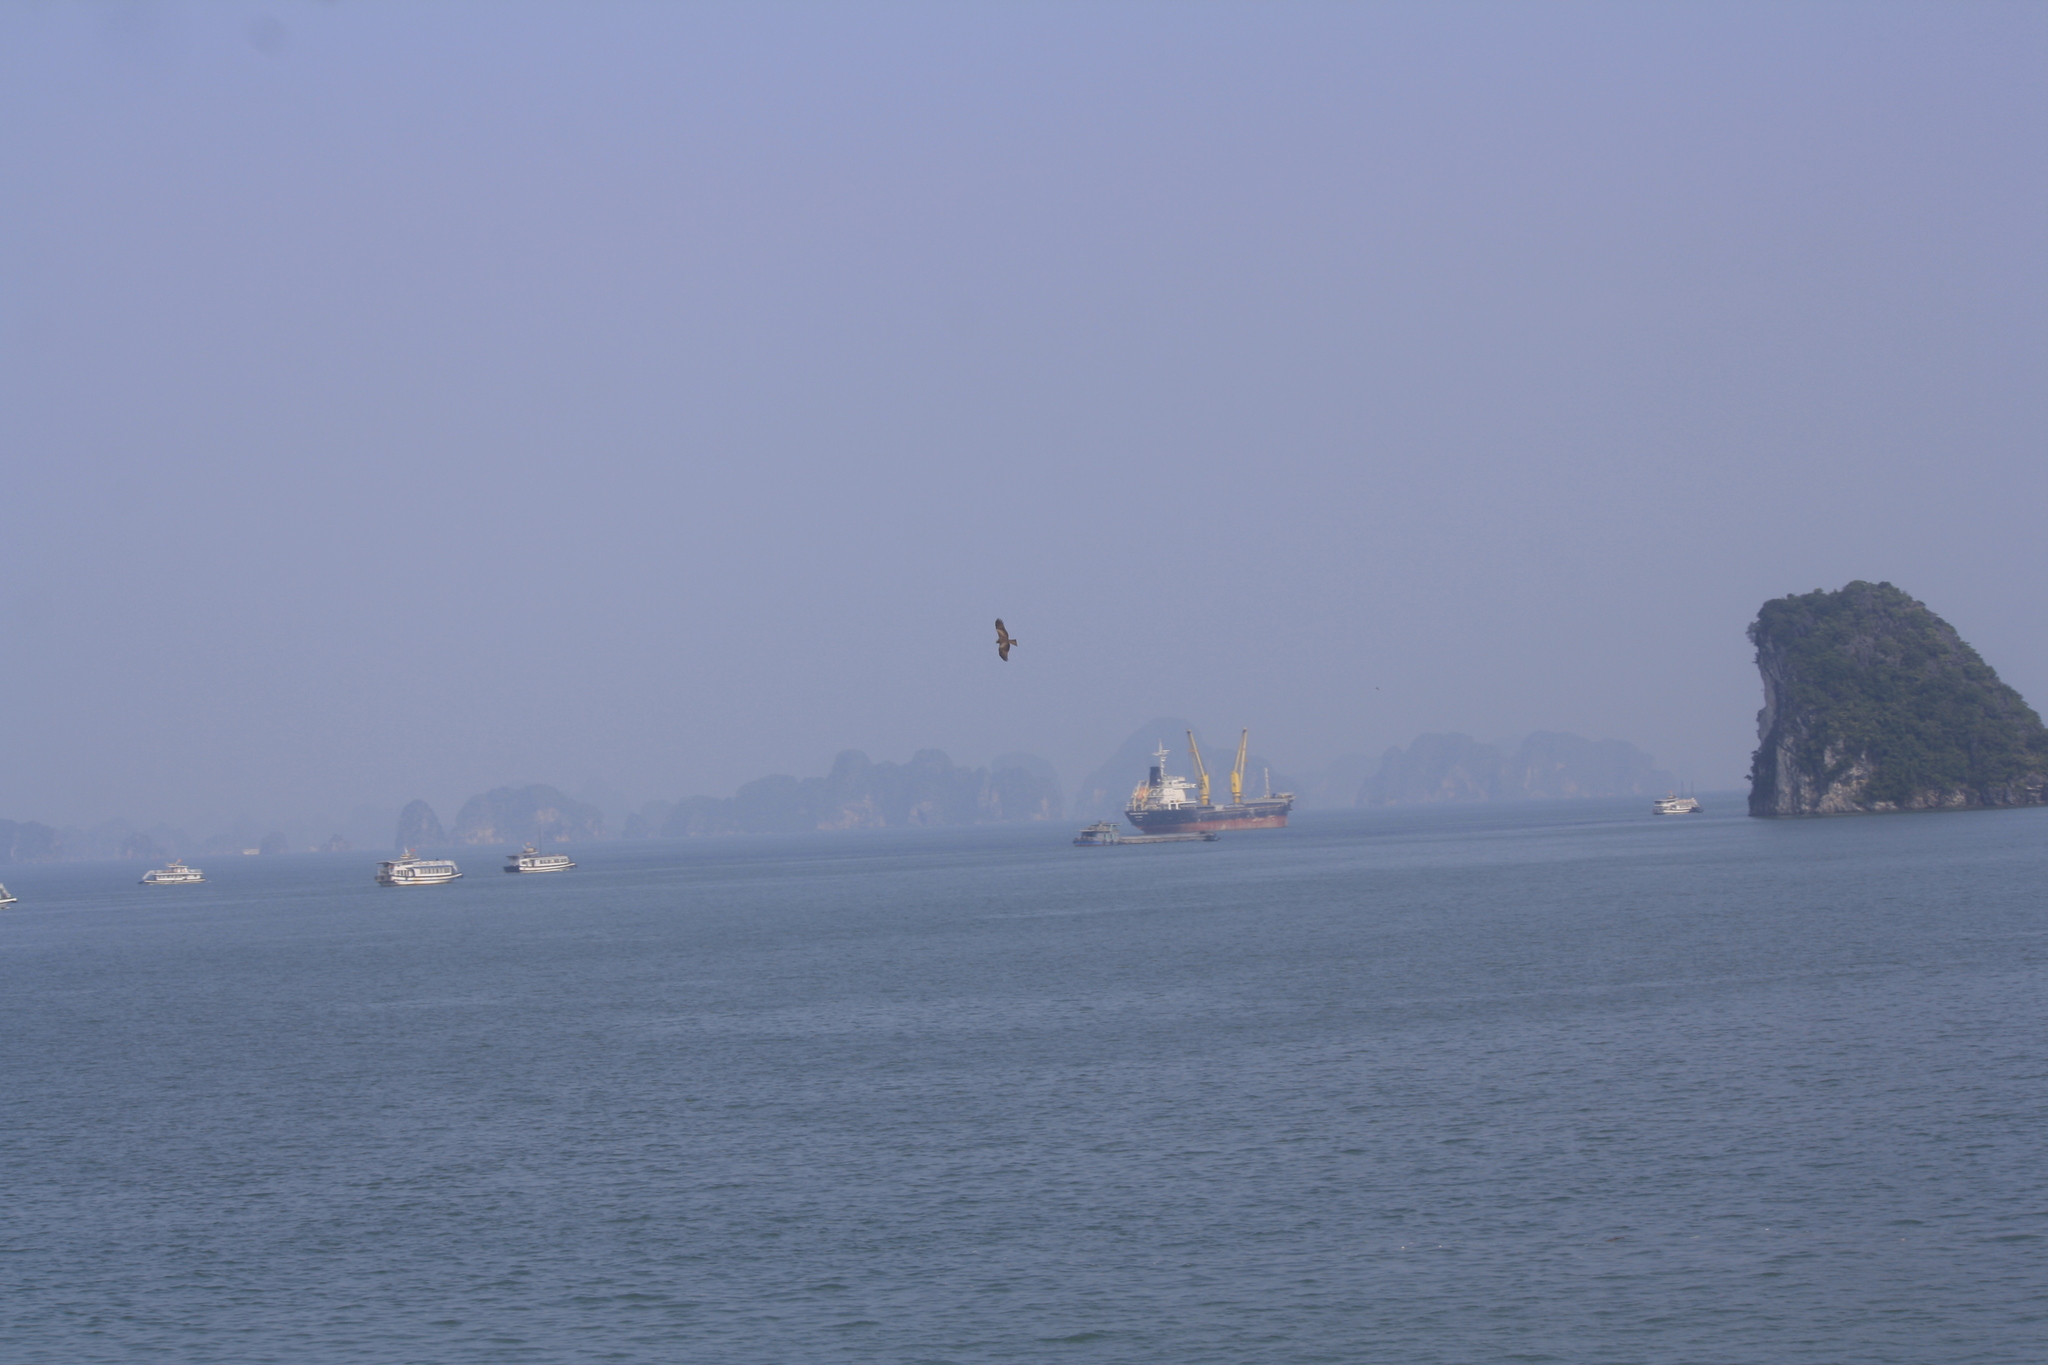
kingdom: Animalia
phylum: Chordata
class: Aves
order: Accipitriformes
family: Accipitridae
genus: Milvus
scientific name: Milvus migrans
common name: Black kite
